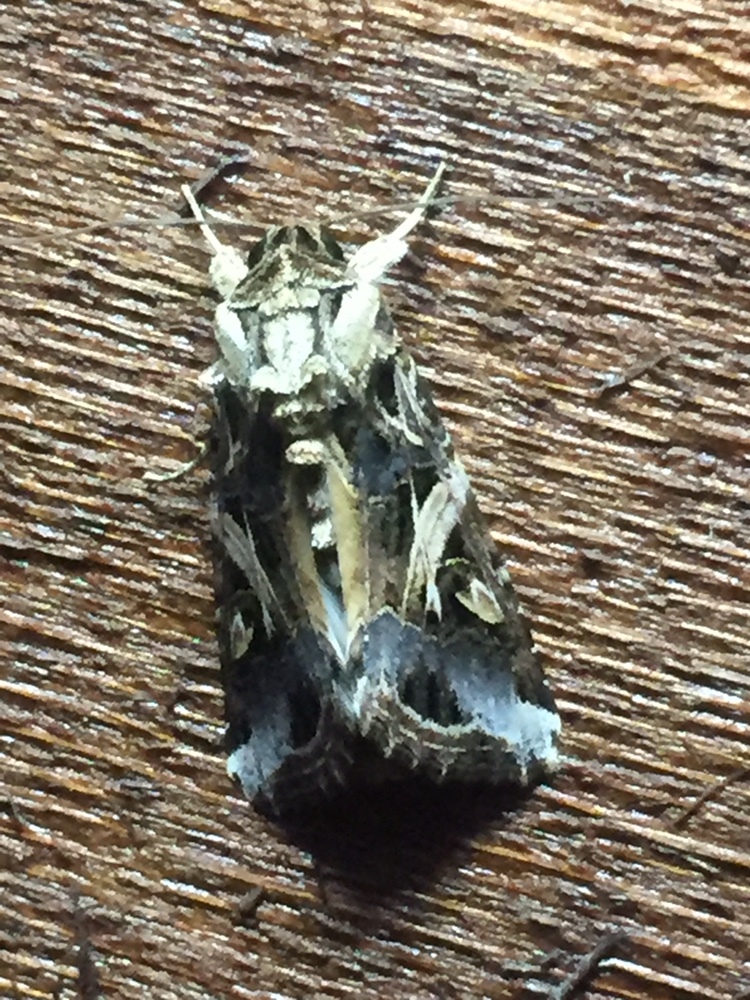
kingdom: Animalia
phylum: Arthropoda
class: Insecta
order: Lepidoptera
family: Noctuidae
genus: Spodoptera
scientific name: Spodoptera litura
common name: Asian cotton leafworm
